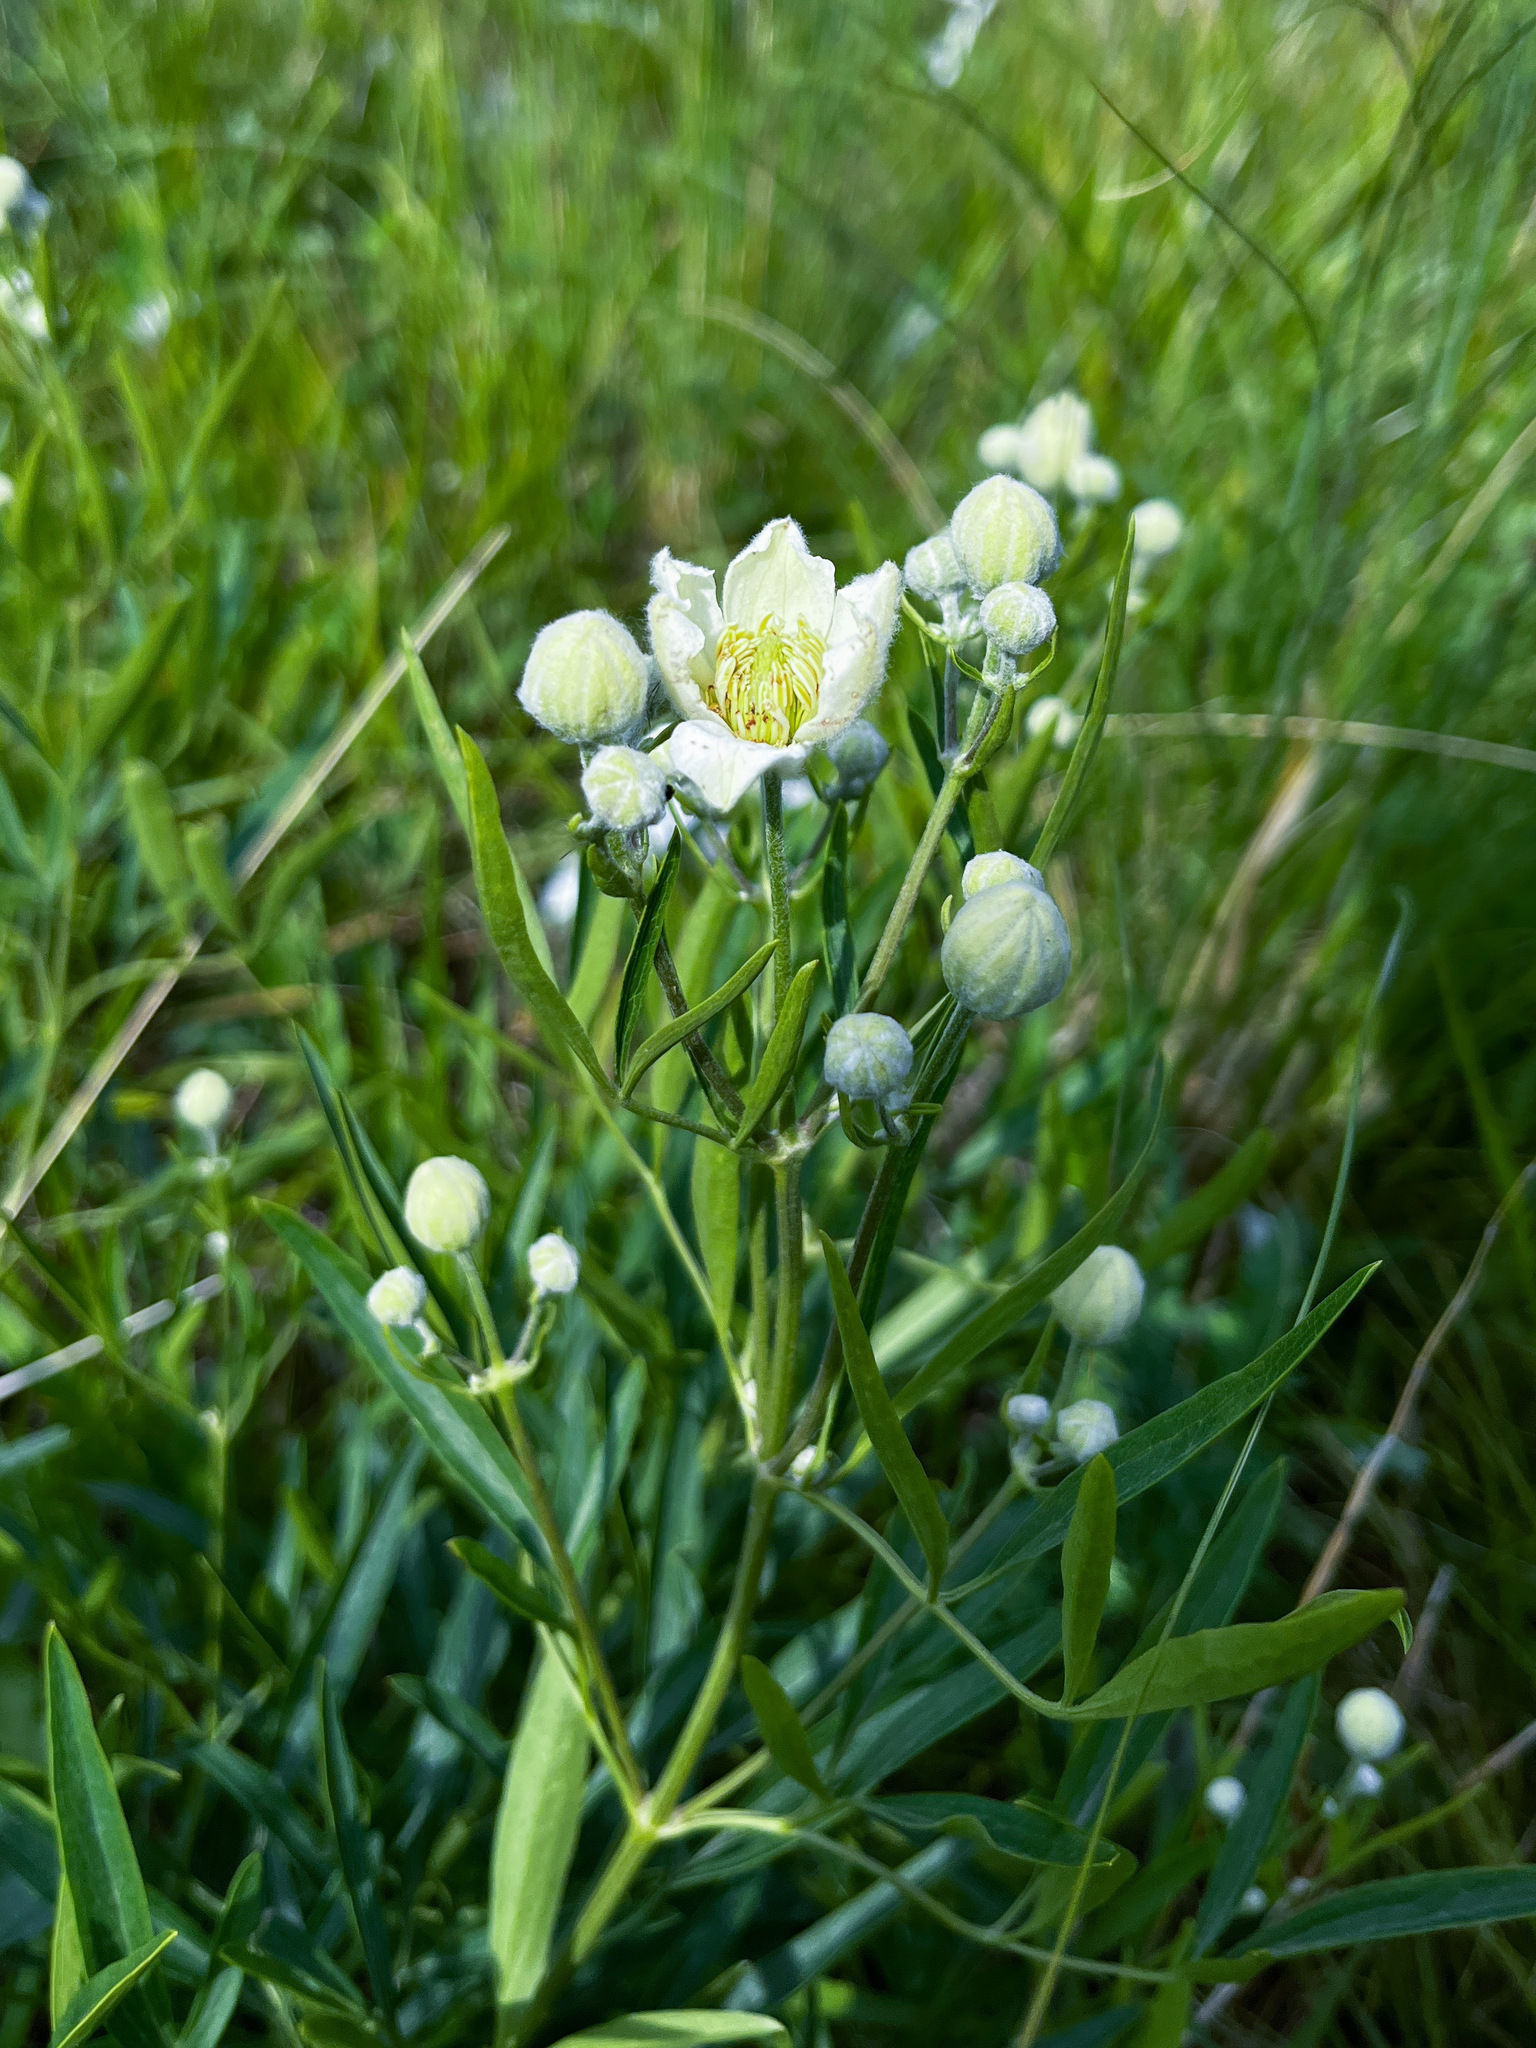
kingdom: Plantae
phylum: Tracheophyta
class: Magnoliopsida
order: Ranunculales
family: Ranunculaceae
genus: Clematis
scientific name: Clematis hexapetala
